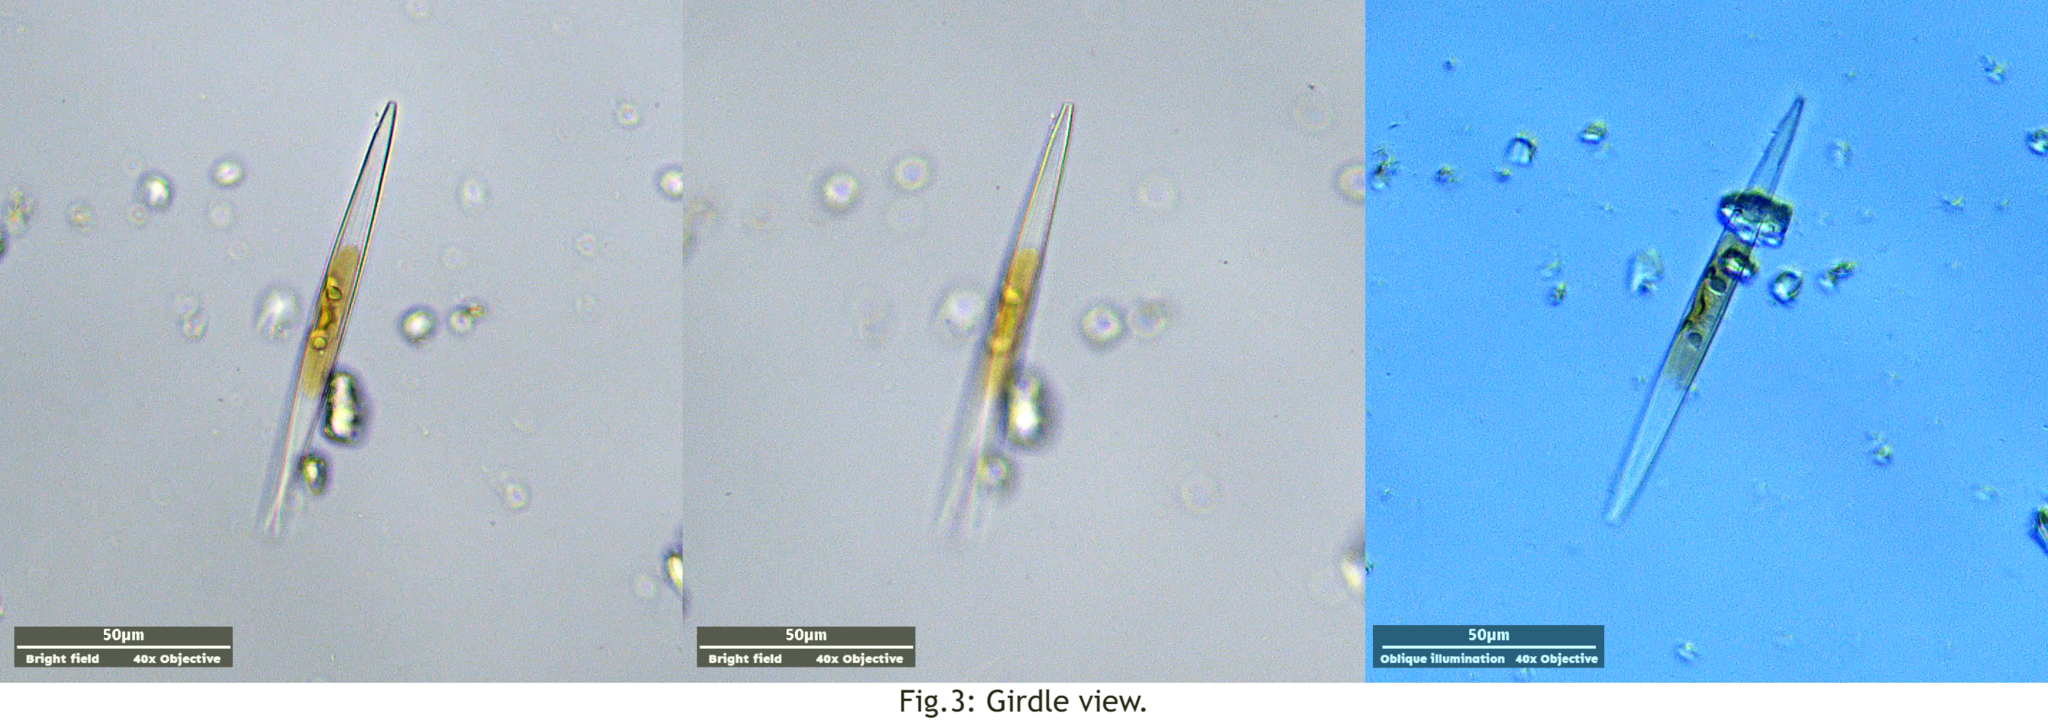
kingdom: Chromista
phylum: Ochrophyta
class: Bacillariophyceae
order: Naviculales
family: Amphipleuraceae
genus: Amphipleura
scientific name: Amphipleura pellucida
